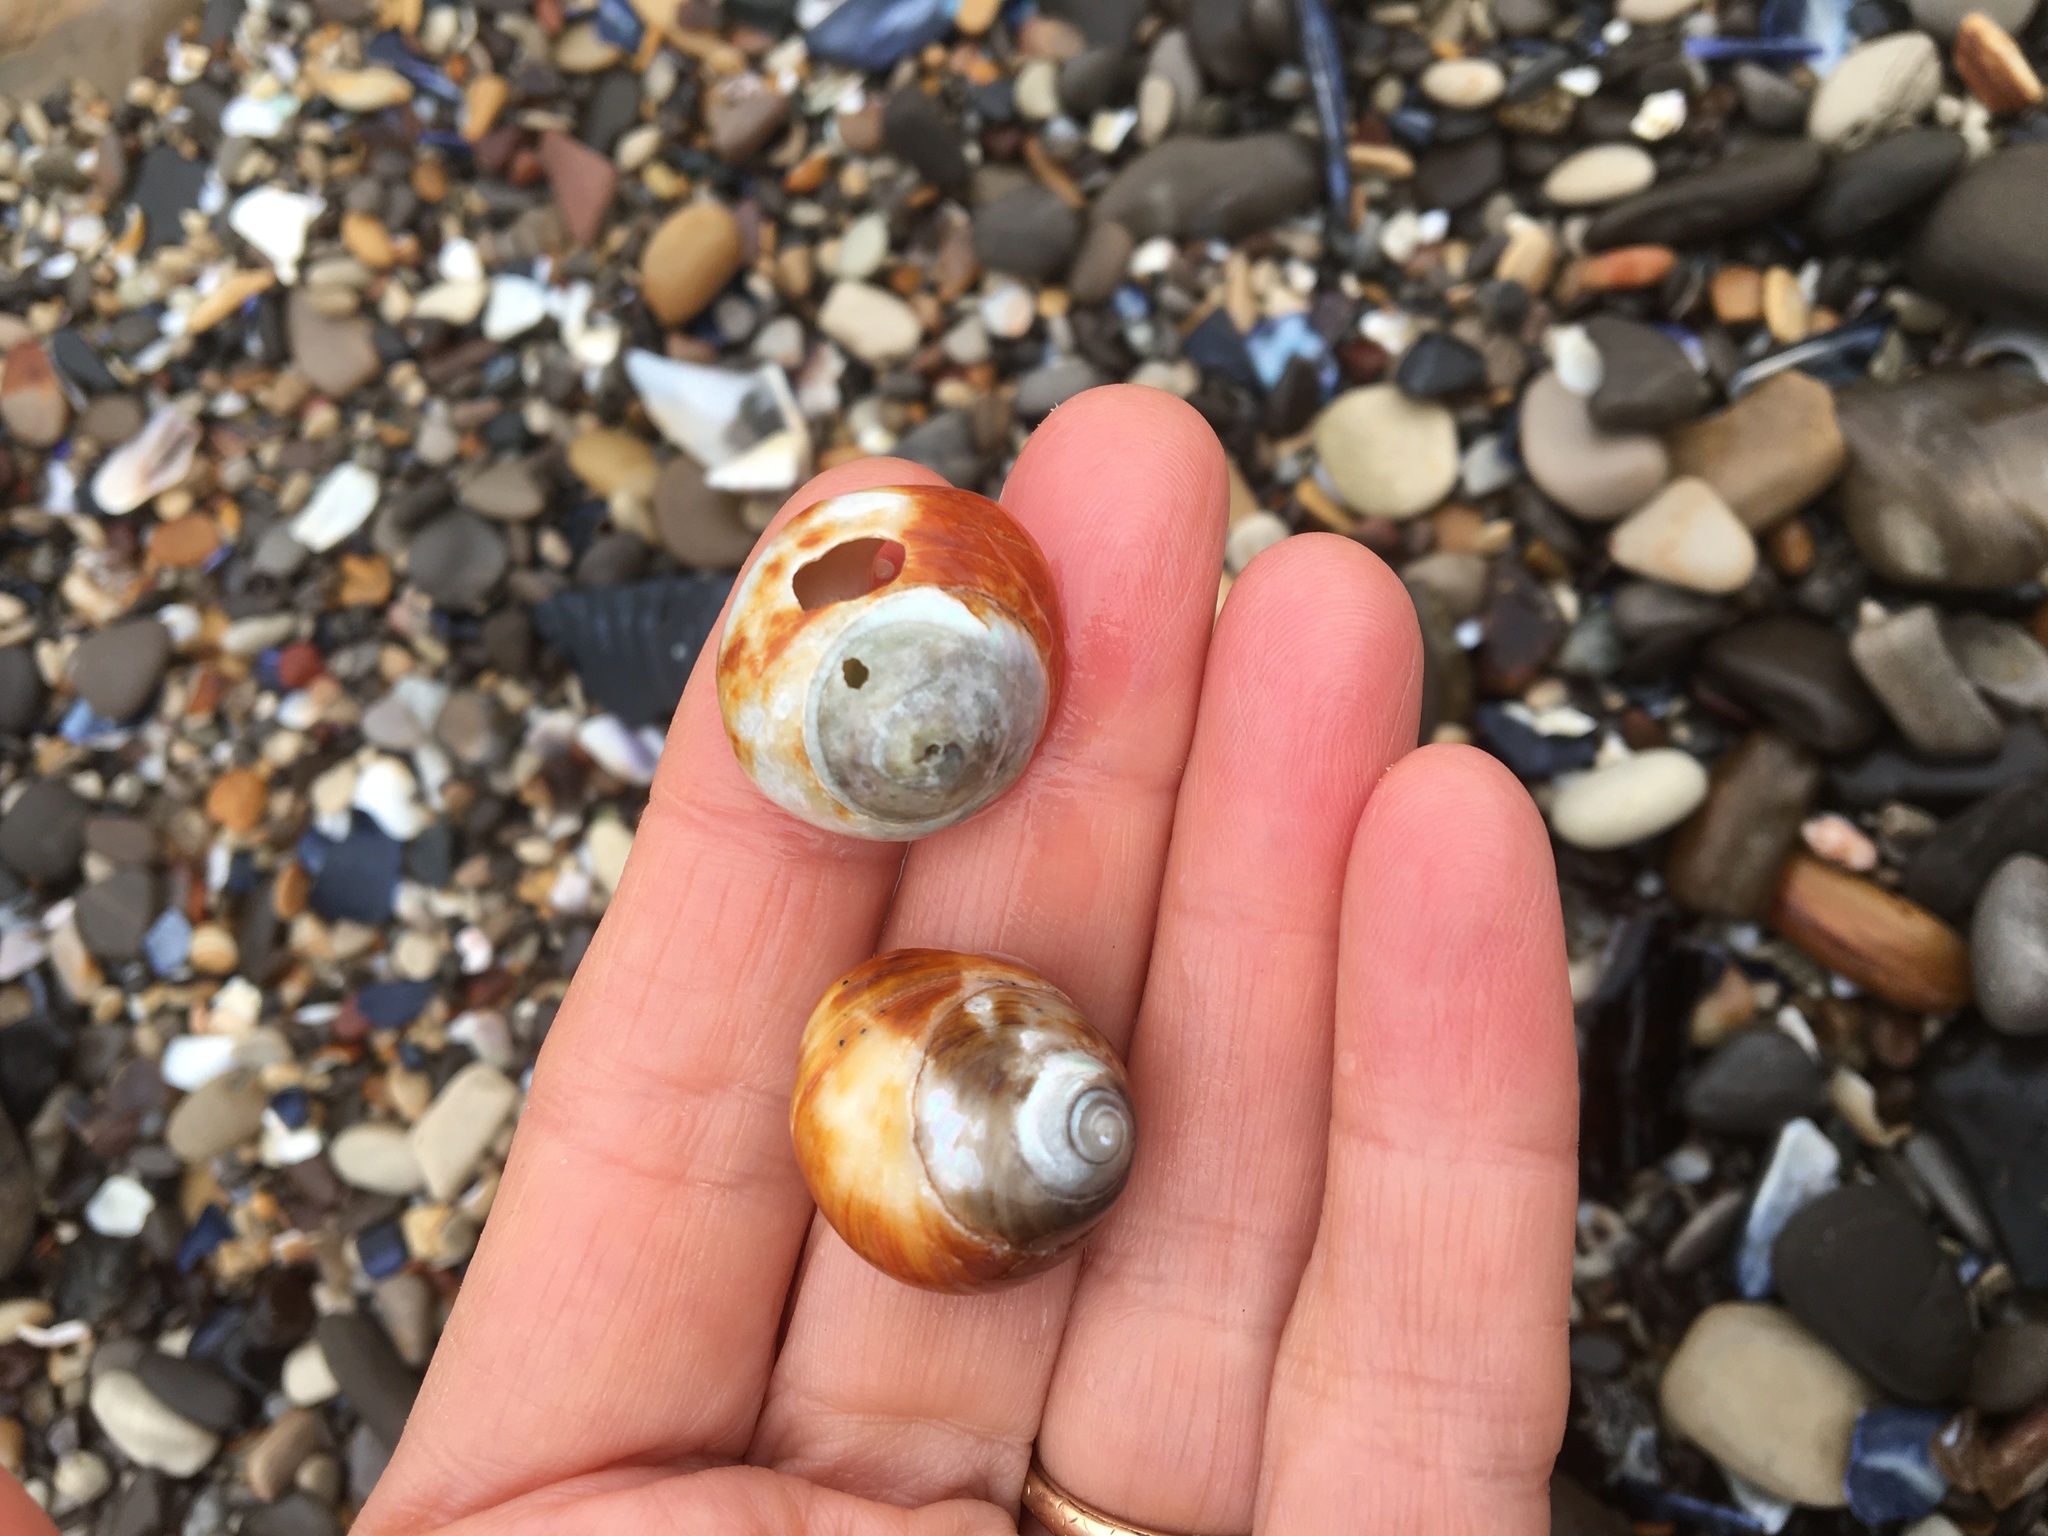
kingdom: Animalia
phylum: Mollusca
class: Gastropoda
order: Trochida
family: Tegulidae
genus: Tegula
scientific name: Tegula brunnea
